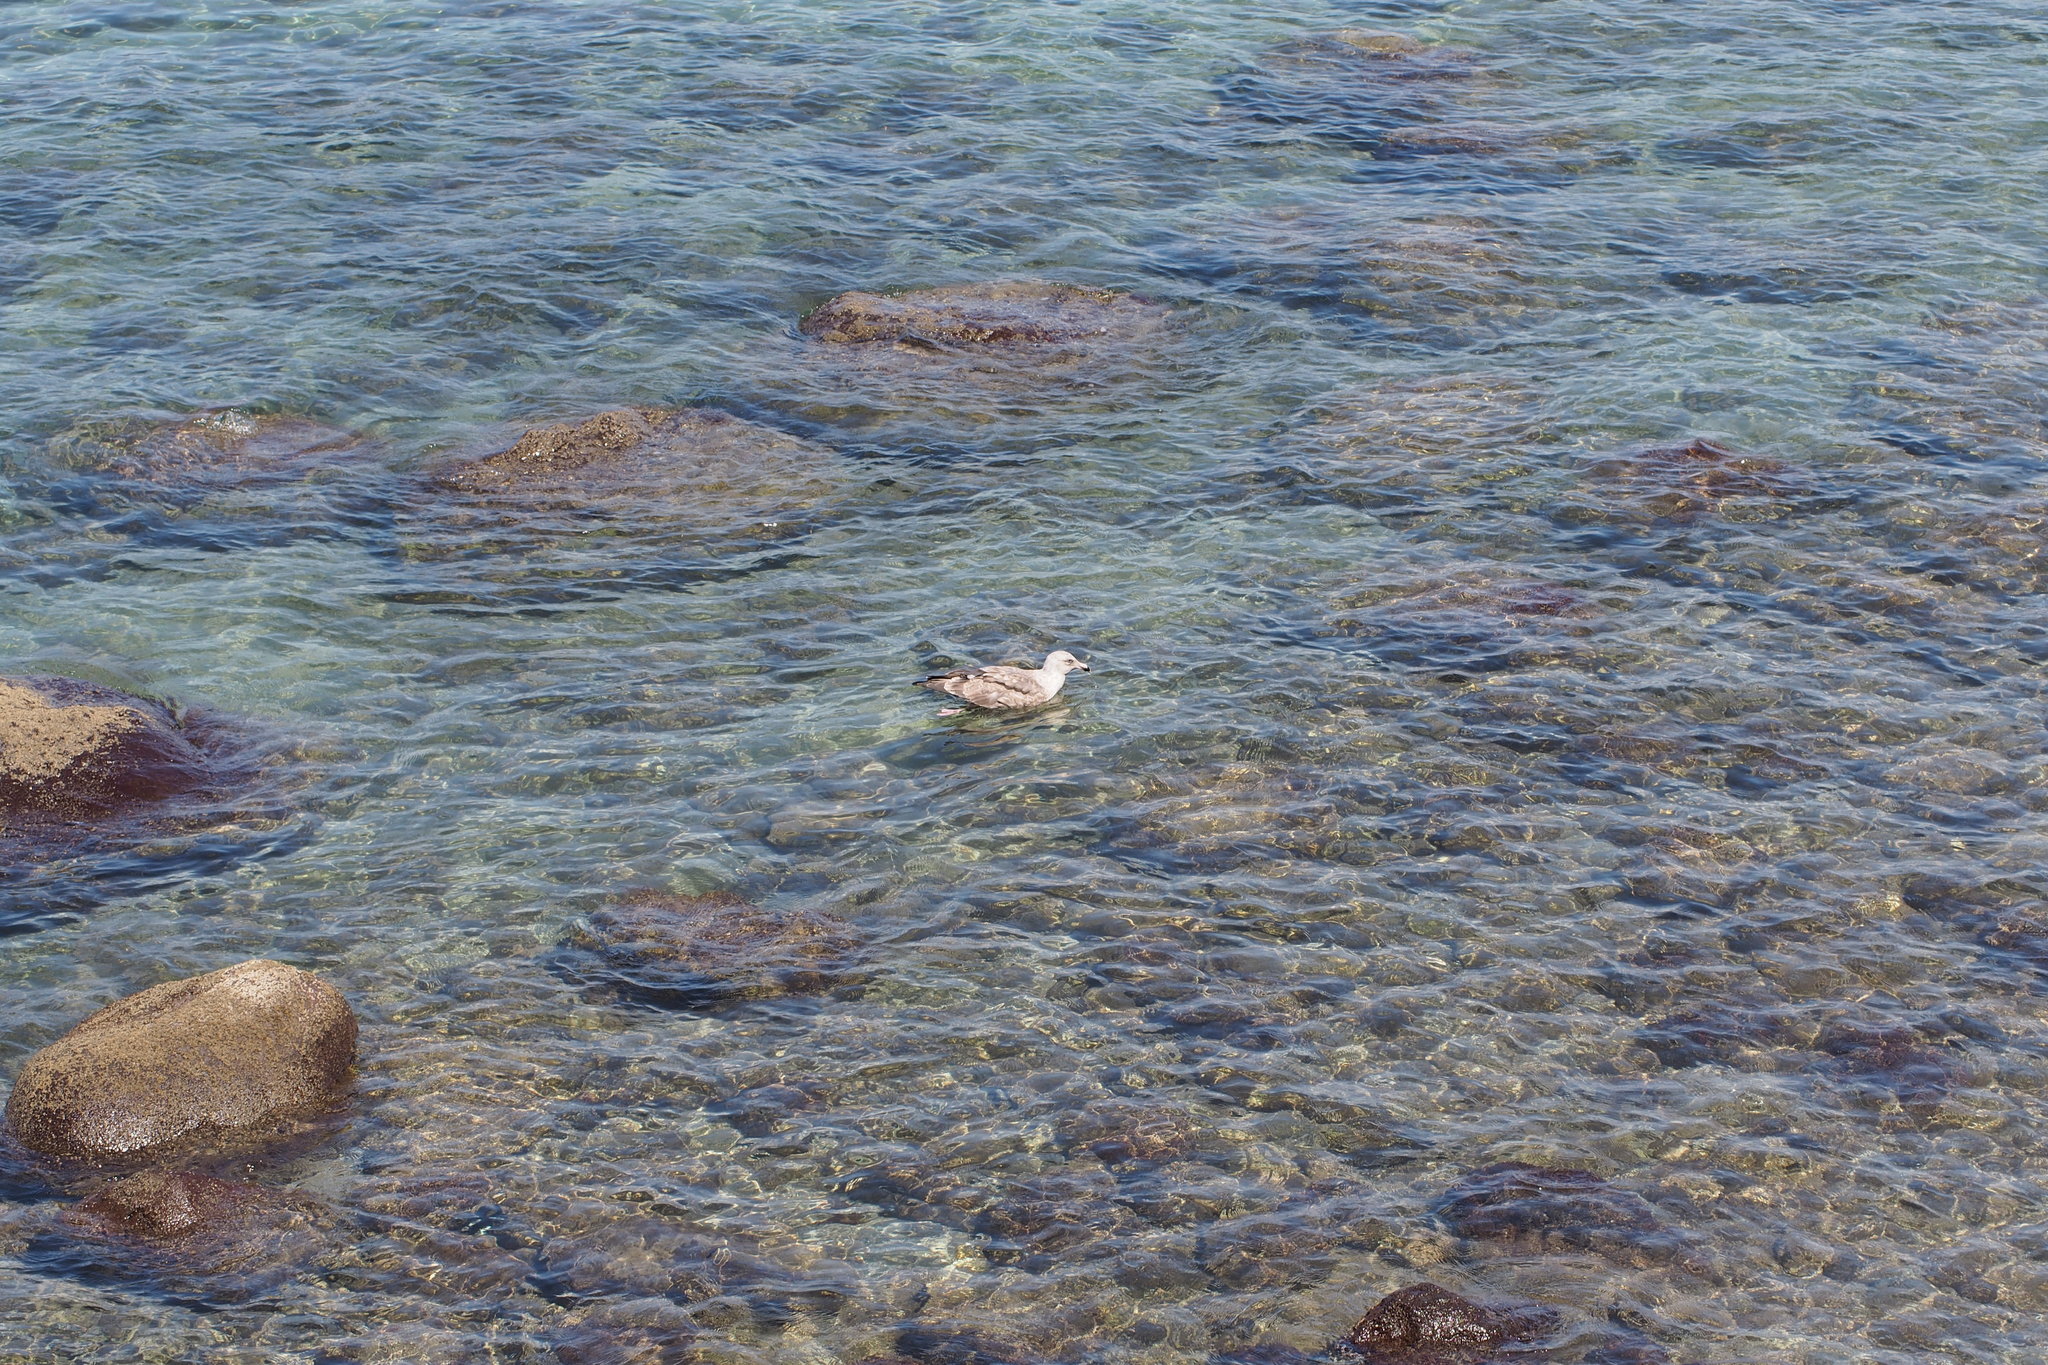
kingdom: Animalia
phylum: Chordata
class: Aves
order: Charadriiformes
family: Laridae
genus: Larus
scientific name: Larus schistisagus
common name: Slaty-backed gull
